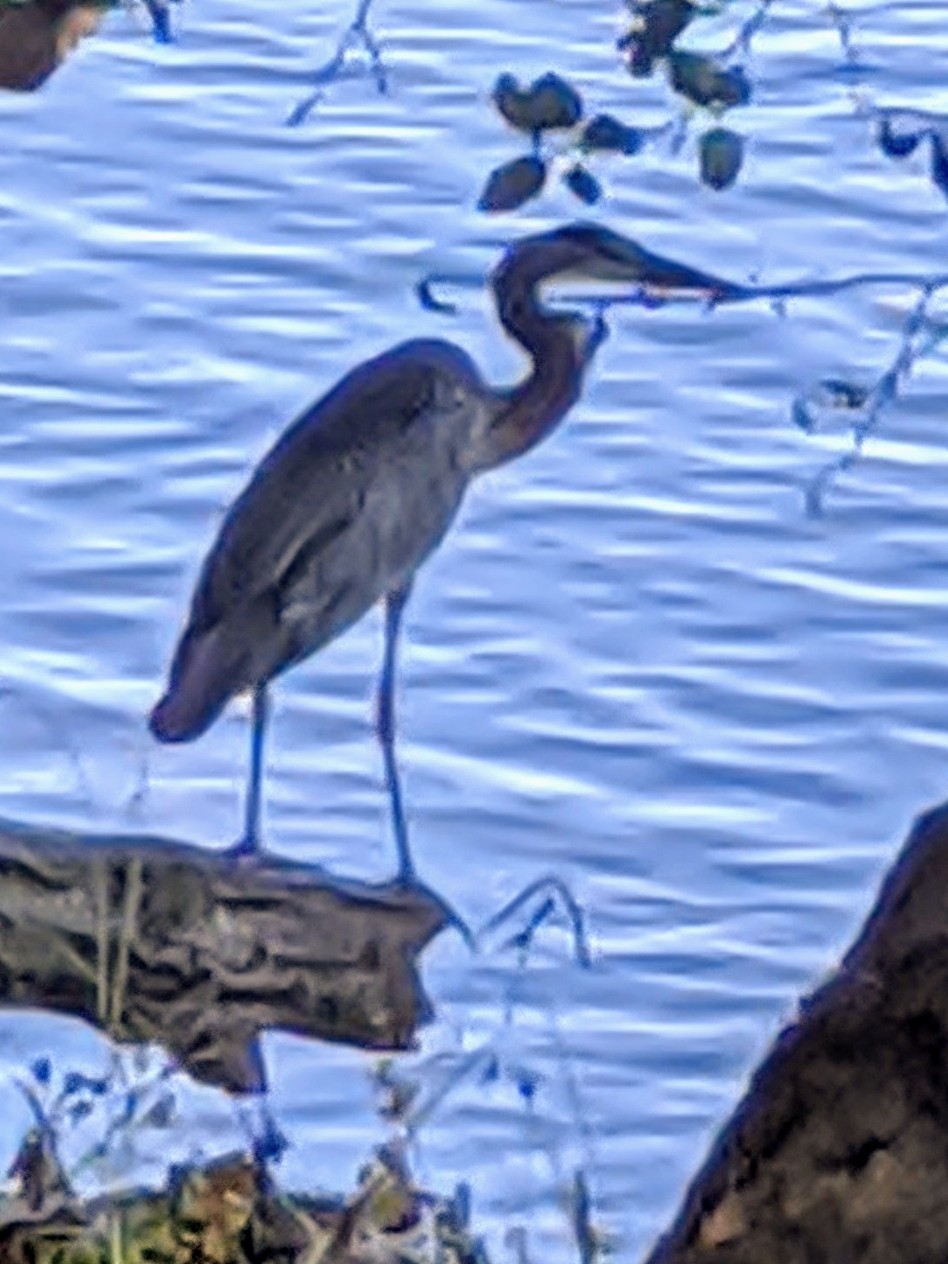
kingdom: Animalia
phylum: Chordata
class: Aves
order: Pelecaniformes
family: Ardeidae
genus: Ardea
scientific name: Ardea herodias
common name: Great blue heron
